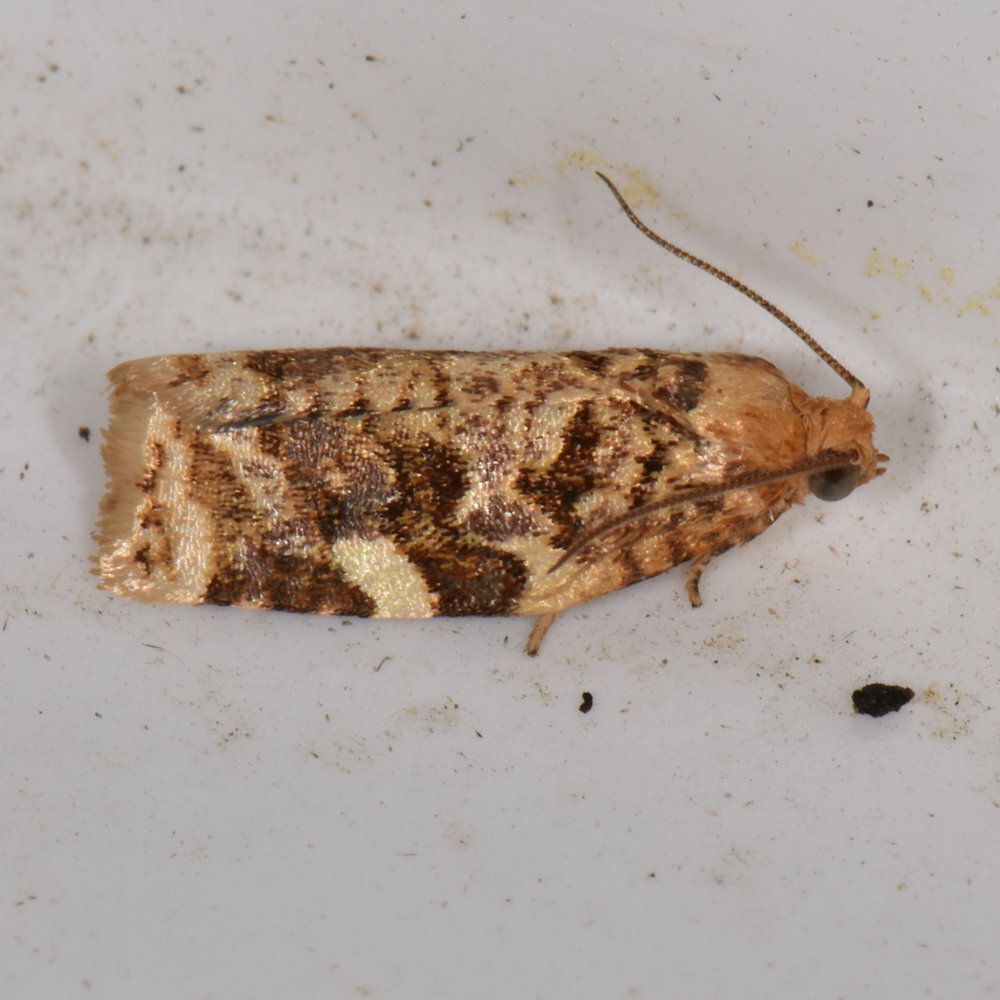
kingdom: Animalia
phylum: Arthropoda
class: Insecta
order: Lepidoptera
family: Tortricidae
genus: Archips
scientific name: Archips argyrospila
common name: Fruit-tree leafroller moth
